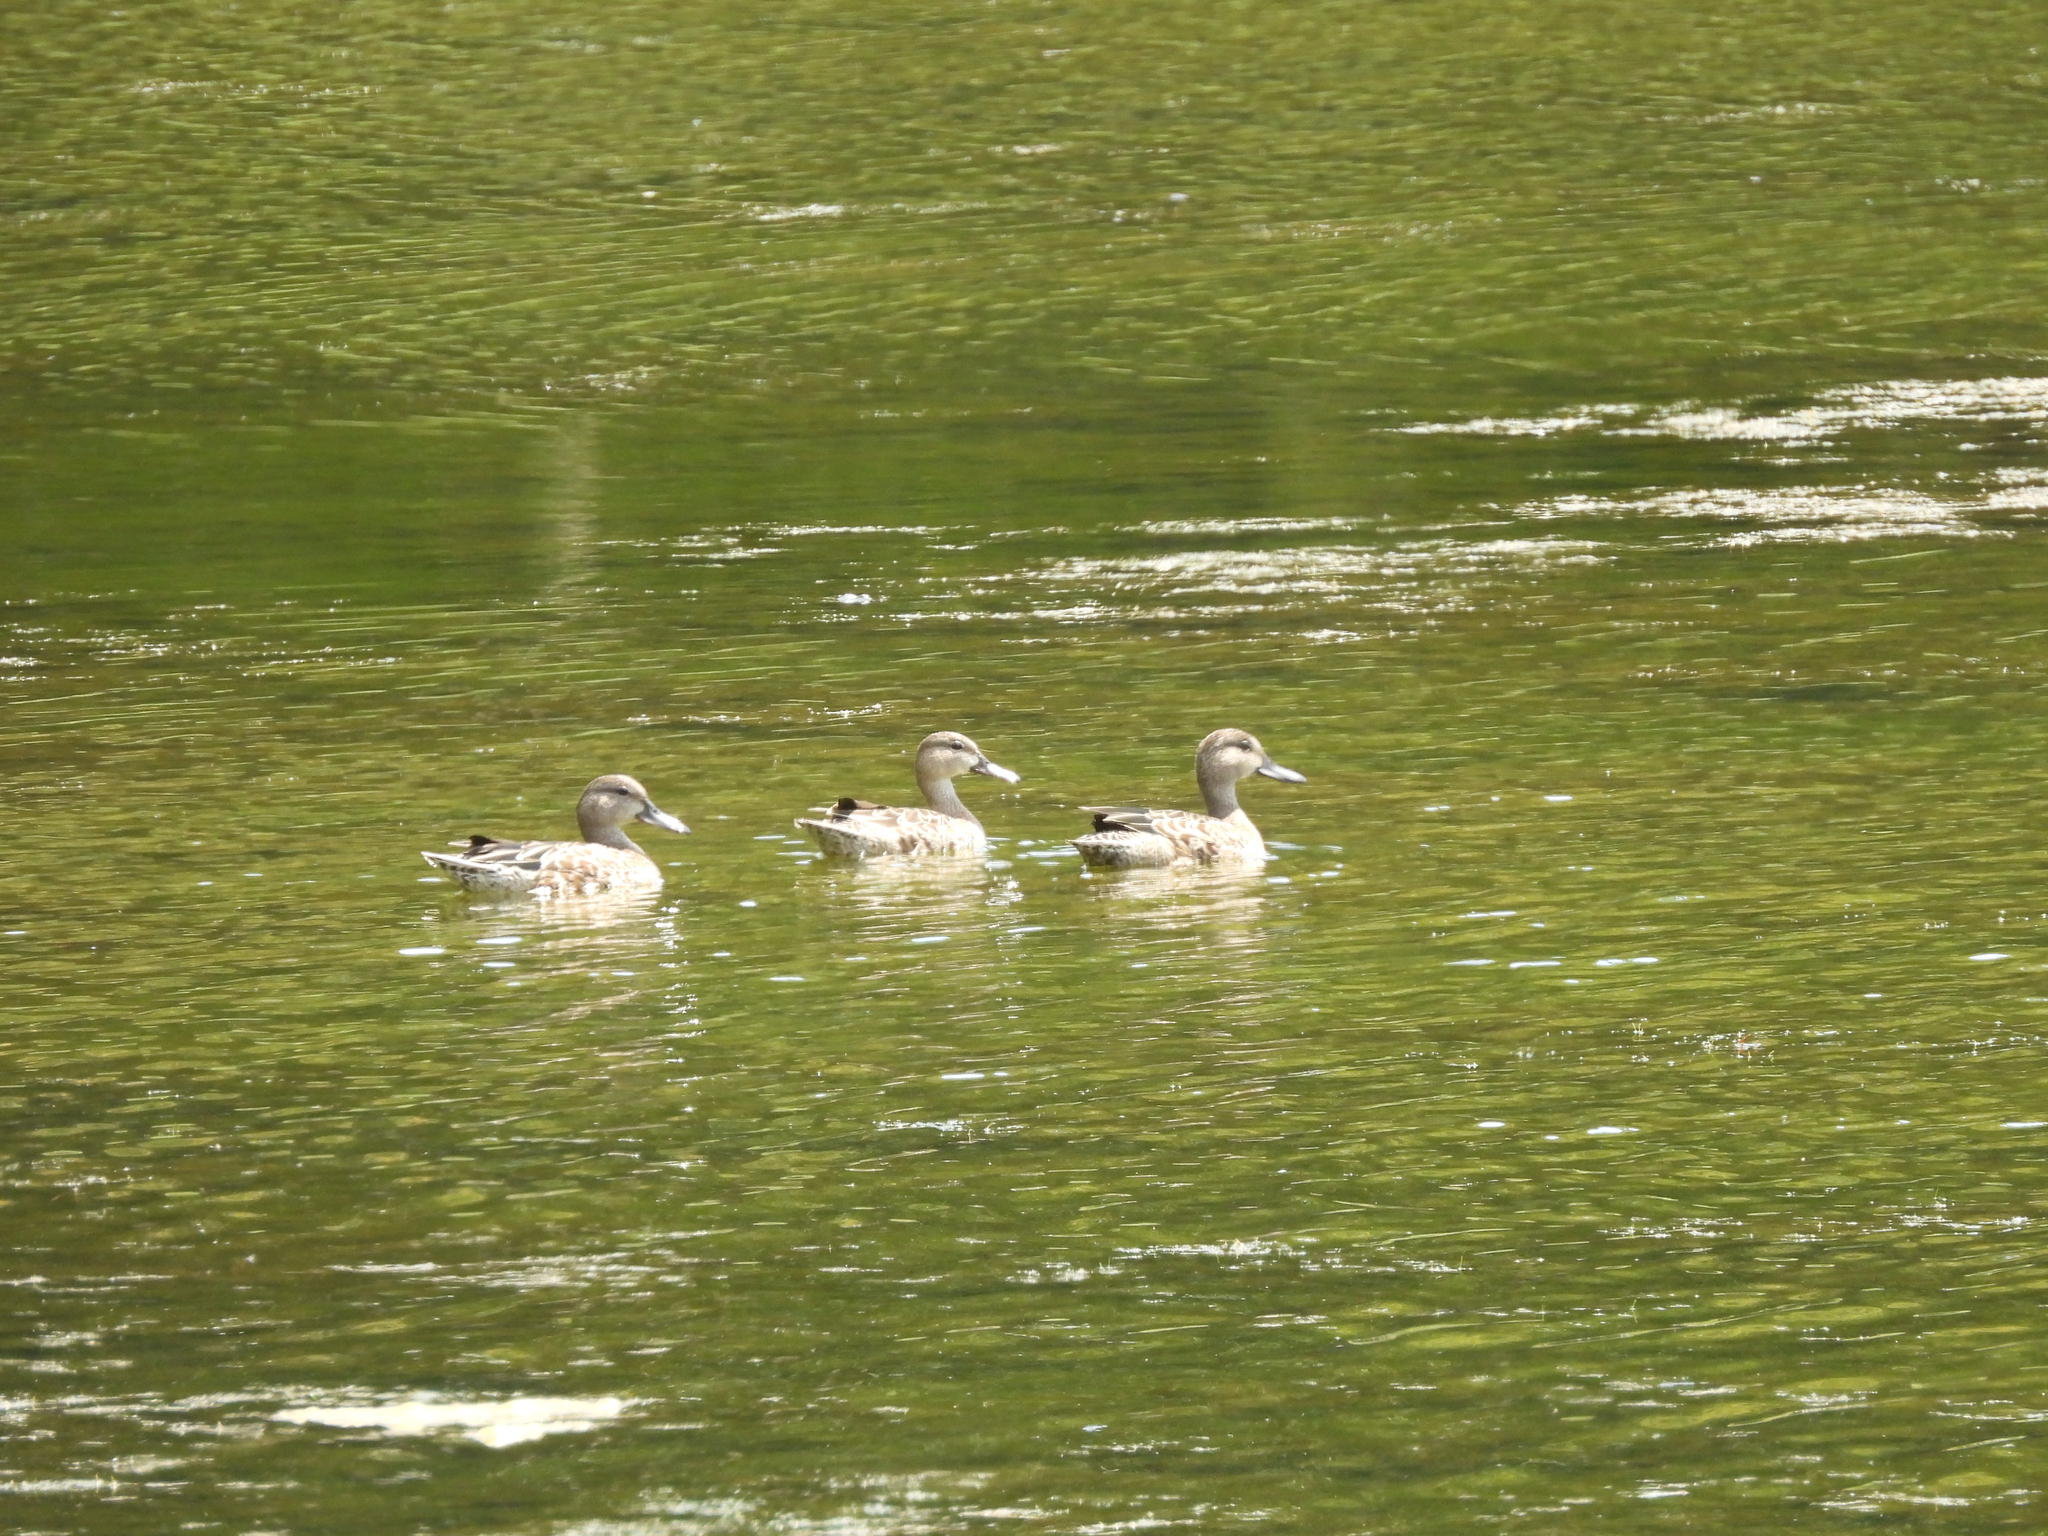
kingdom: Animalia
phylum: Chordata
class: Aves
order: Anseriformes
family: Anatidae
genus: Spatula
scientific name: Spatula discors
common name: Blue-winged teal
